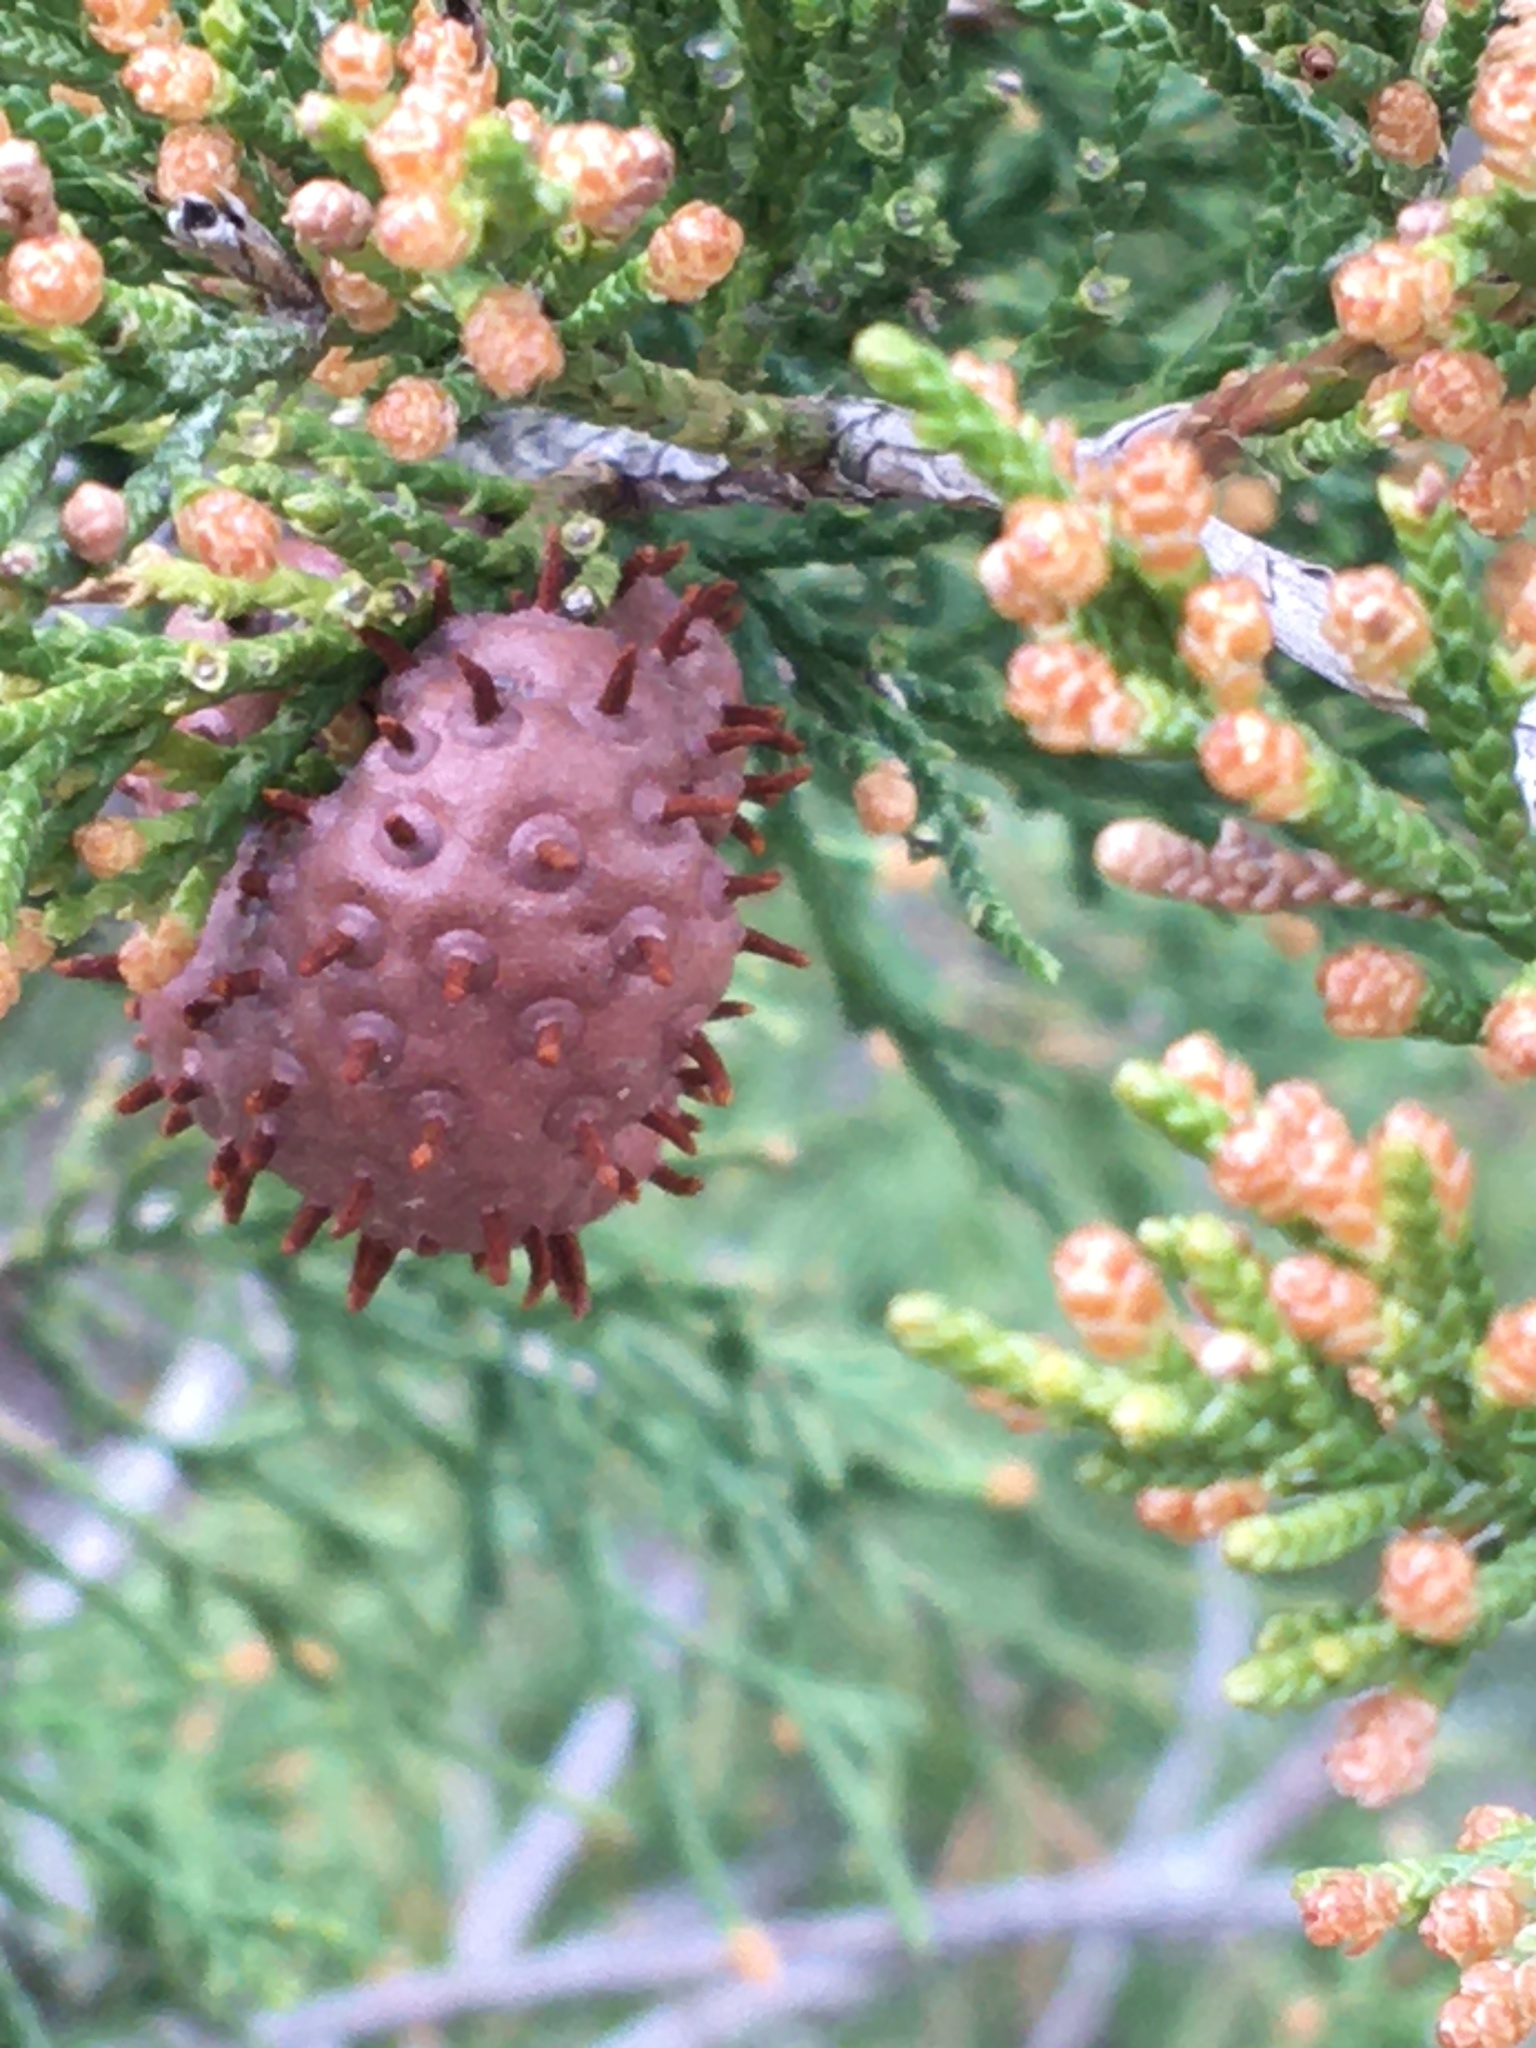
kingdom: Fungi
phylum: Basidiomycota
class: Pucciniomycetes
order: Pucciniales
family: Gymnosporangiaceae
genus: Gymnosporangium
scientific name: Gymnosporangium juniperi-virginianae
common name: Juniper-apple rust
